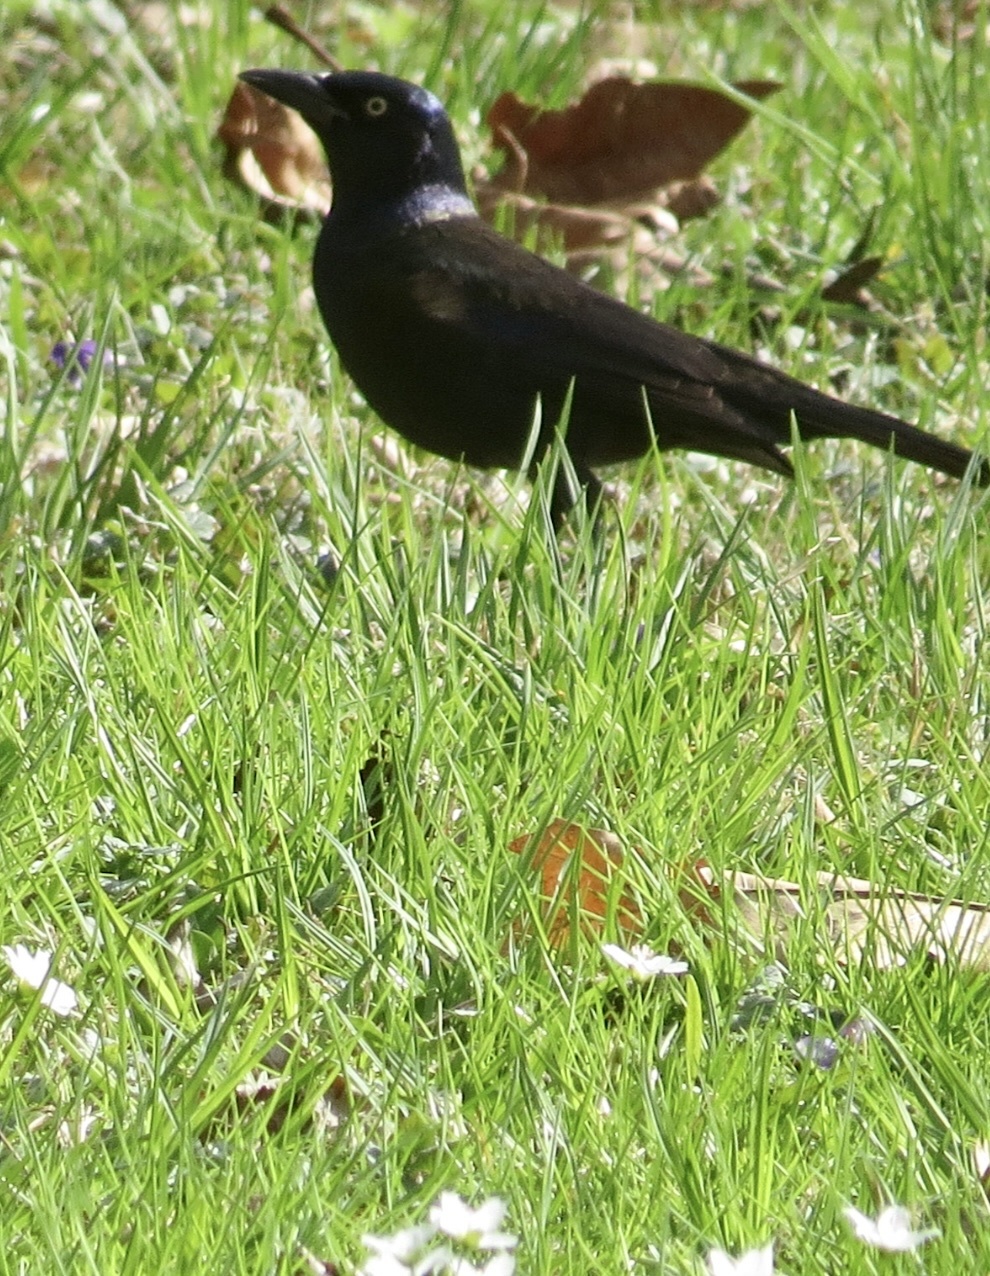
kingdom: Animalia
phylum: Chordata
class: Aves
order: Passeriformes
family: Icteridae
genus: Quiscalus
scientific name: Quiscalus quiscula
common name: Common grackle
